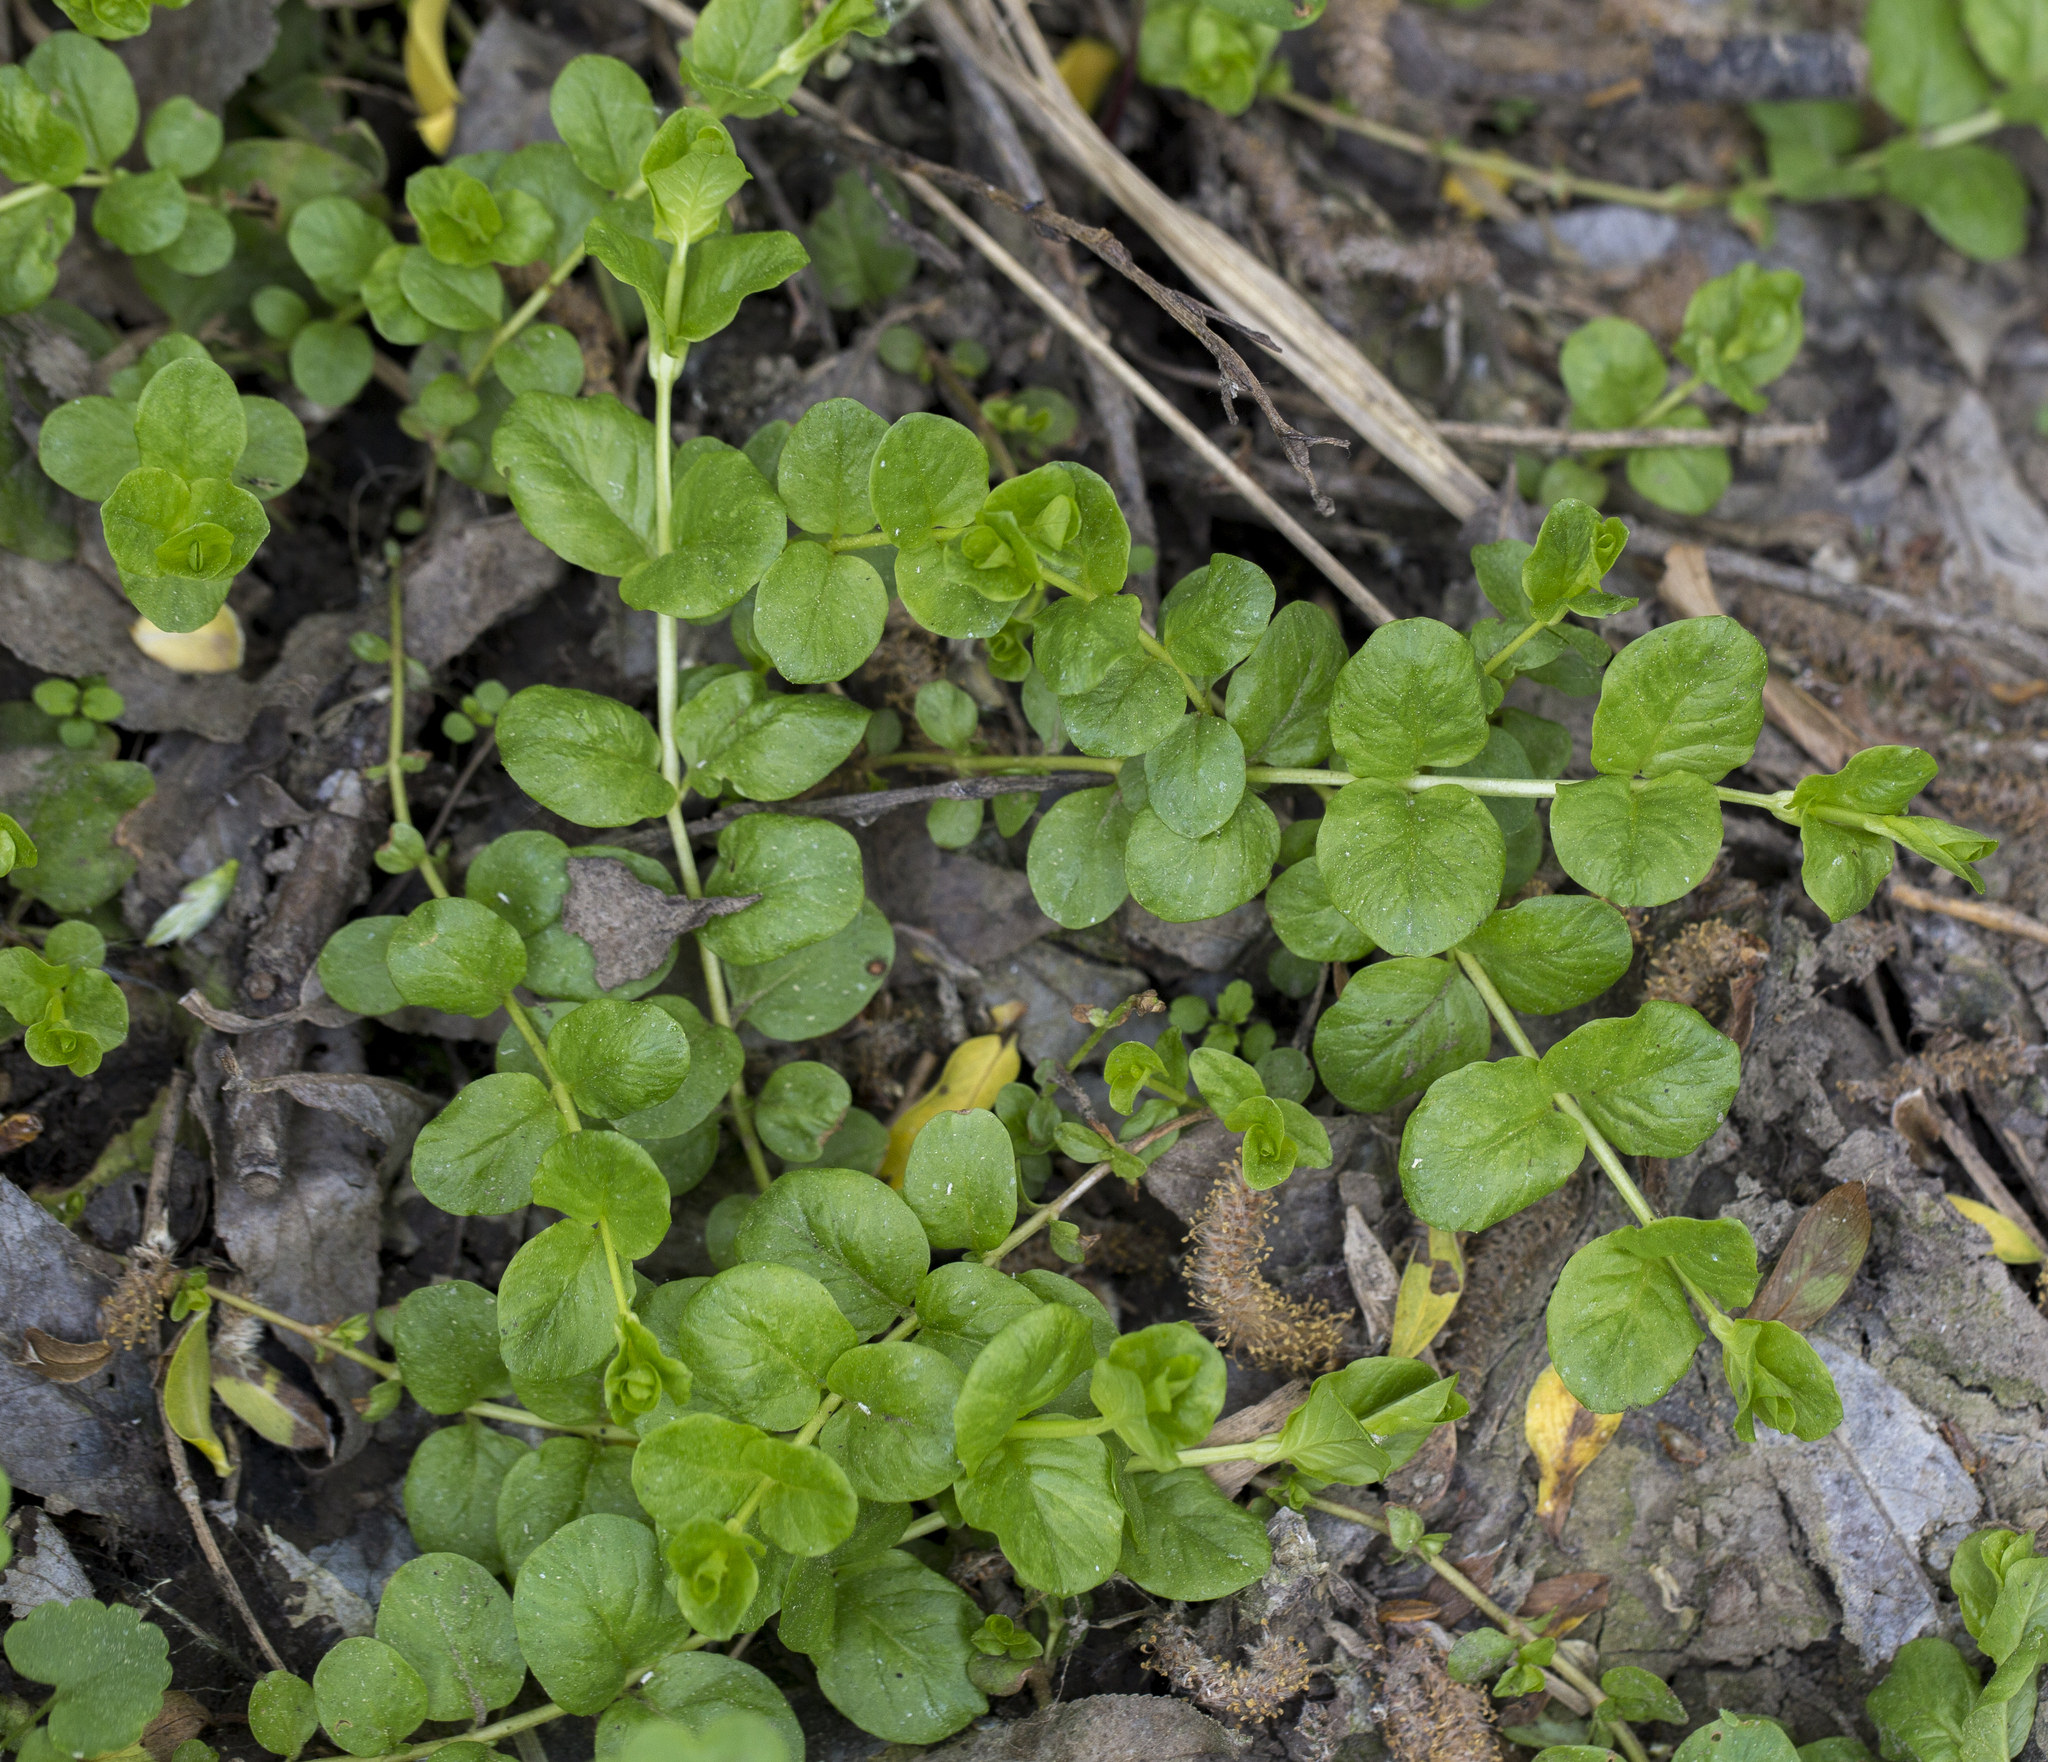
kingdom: Plantae
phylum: Tracheophyta
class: Magnoliopsida
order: Ericales
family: Primulaceae
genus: Lysimachia
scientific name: Lysimachia nummularia
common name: Moneywort
